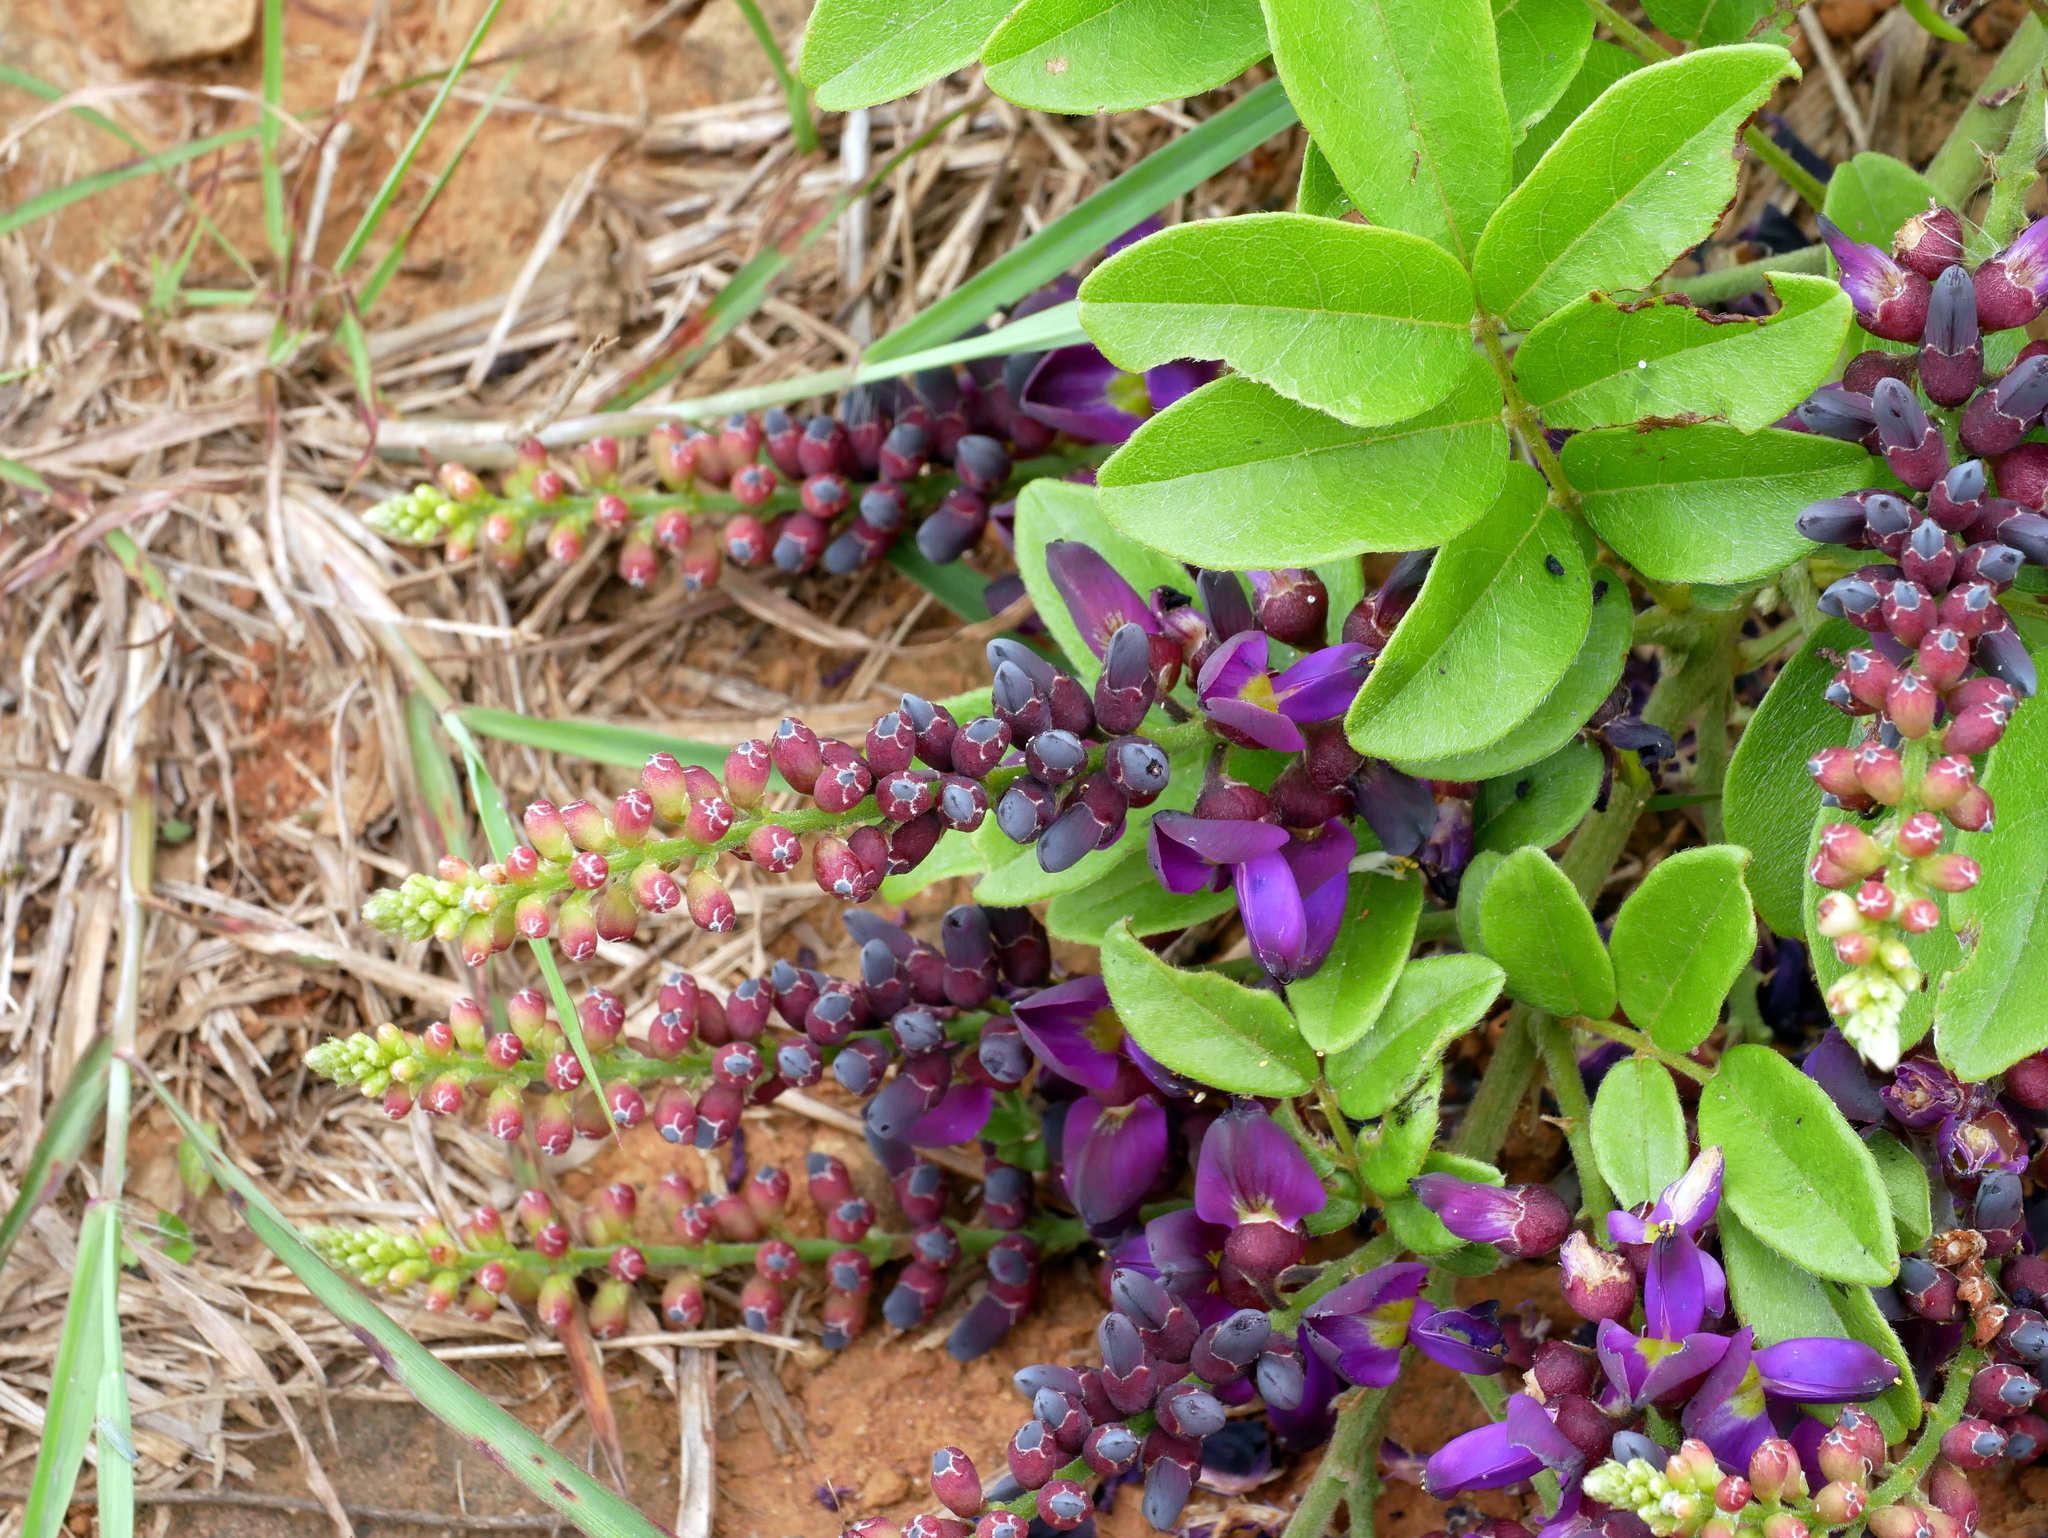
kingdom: Plantae
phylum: Tracheophyta
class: Magnoliopsida
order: Fabales
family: Fabaceae
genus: Wisteriopsis
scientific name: Wisteriopsis reticulata
